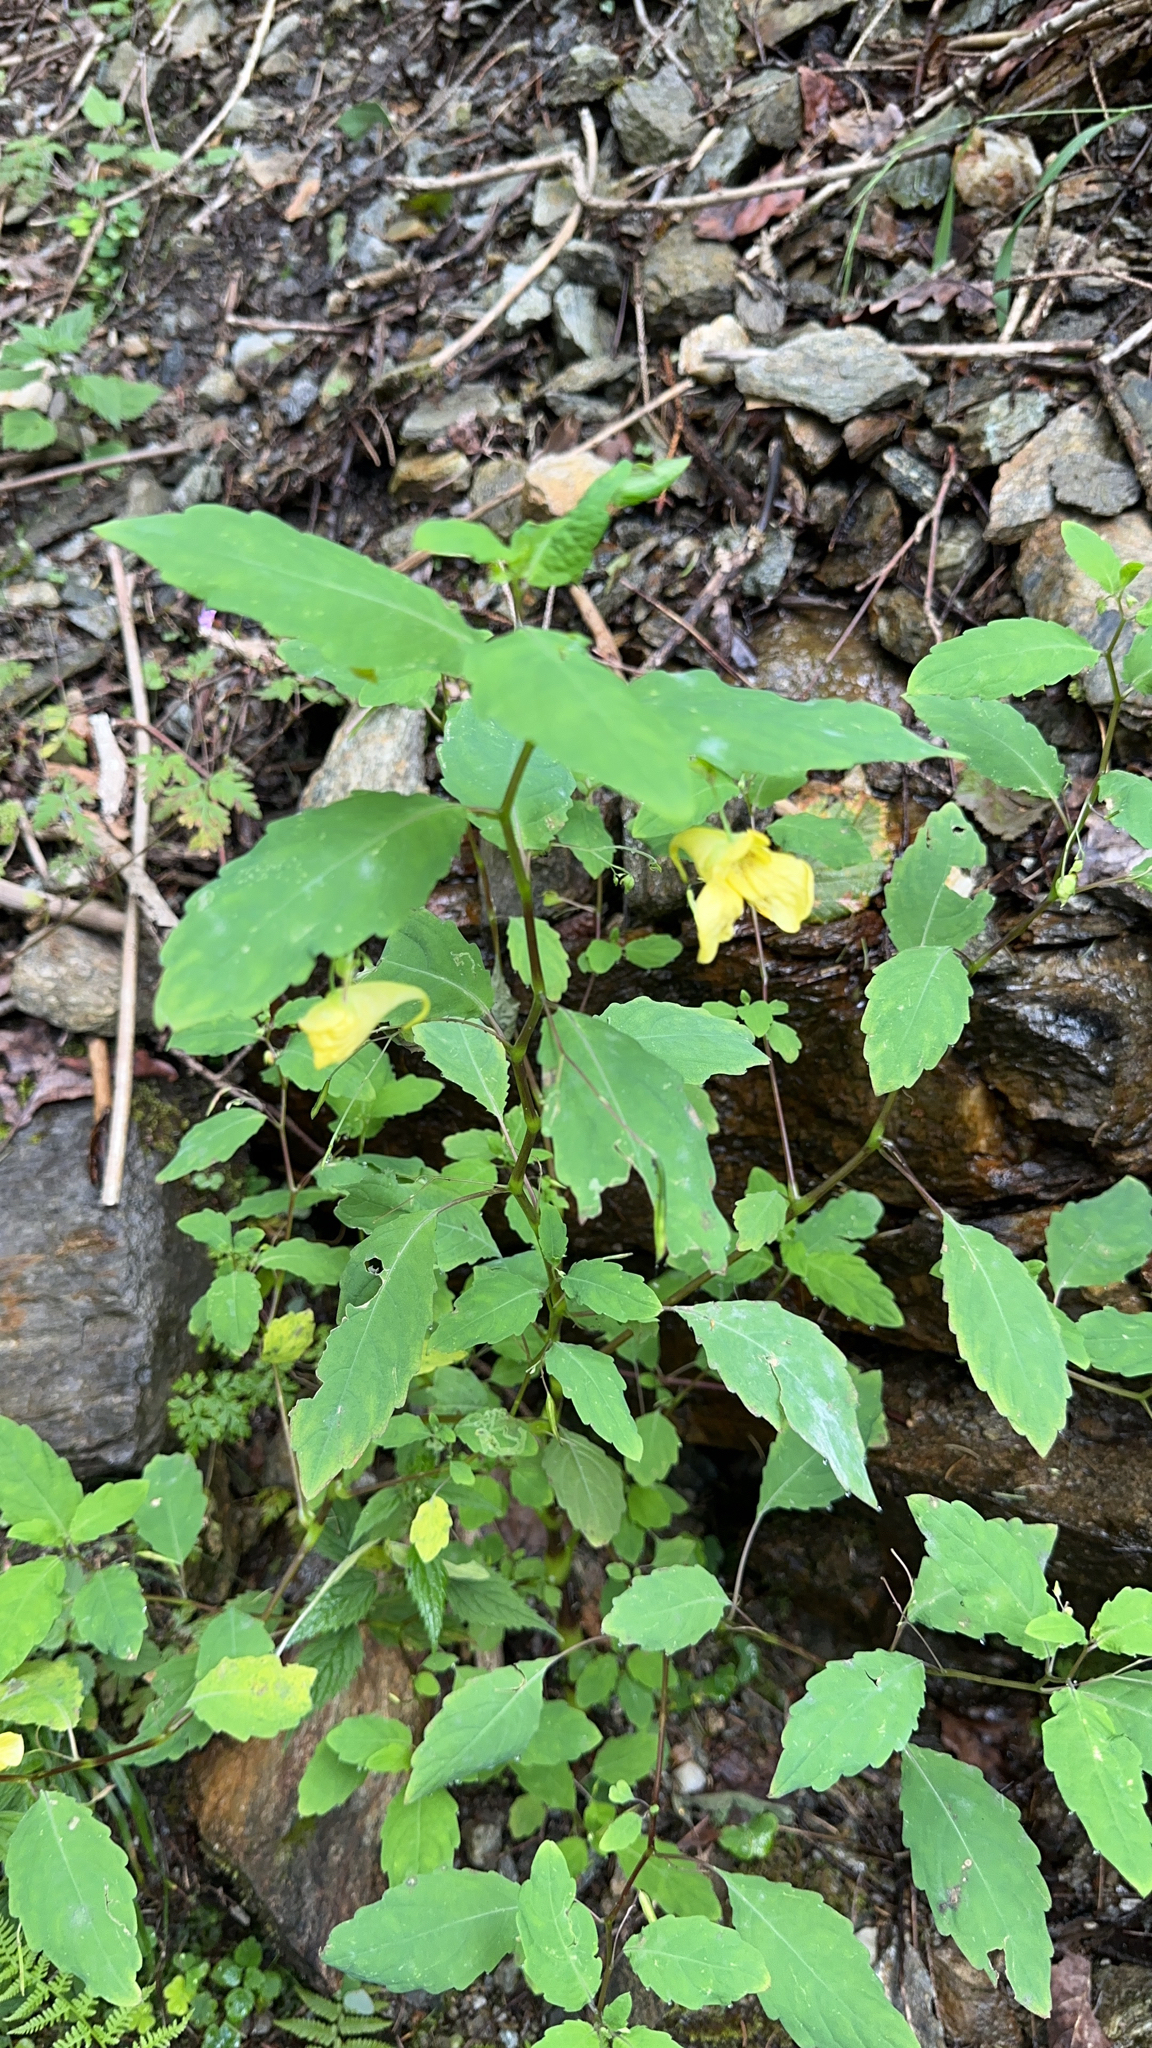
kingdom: Plantae
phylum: Tracheophyta
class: Magnoliopsida
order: Ericales
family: Balsaminaceae
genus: Impatiens
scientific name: Impatiens noli-tangere
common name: Touch-me-not balsam
